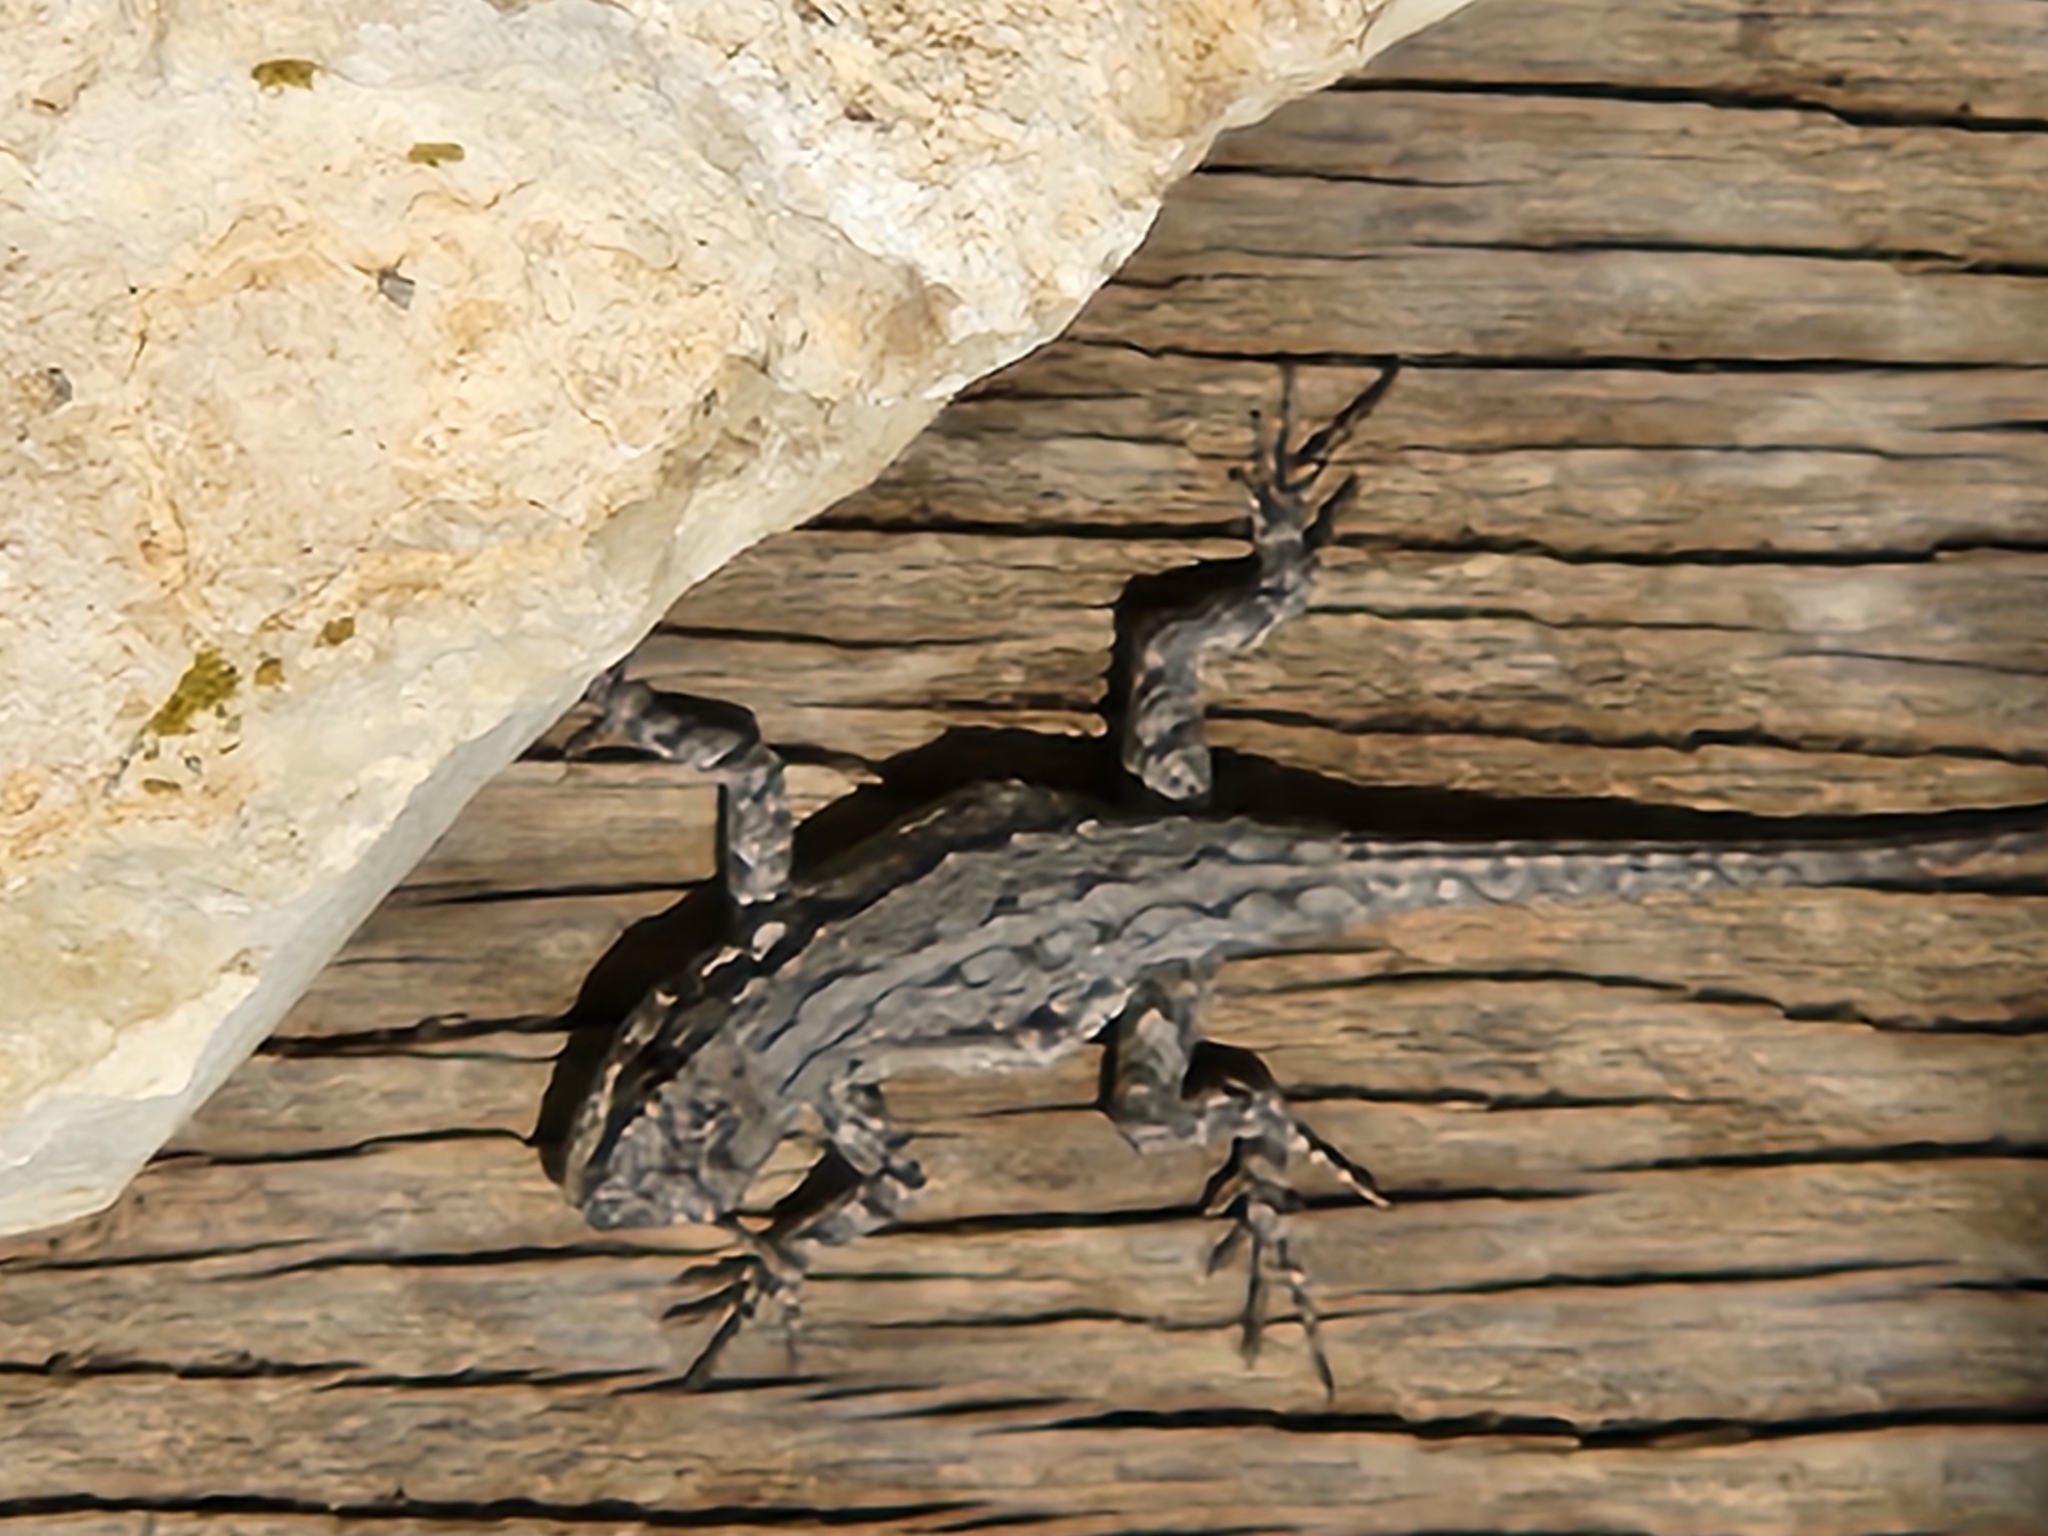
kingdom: Animalia
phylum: Chordata
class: Squamata
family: Phrynosomatidae
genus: Urosaurus
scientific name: Urosaurus ornatus
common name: Ornate tree lizard
